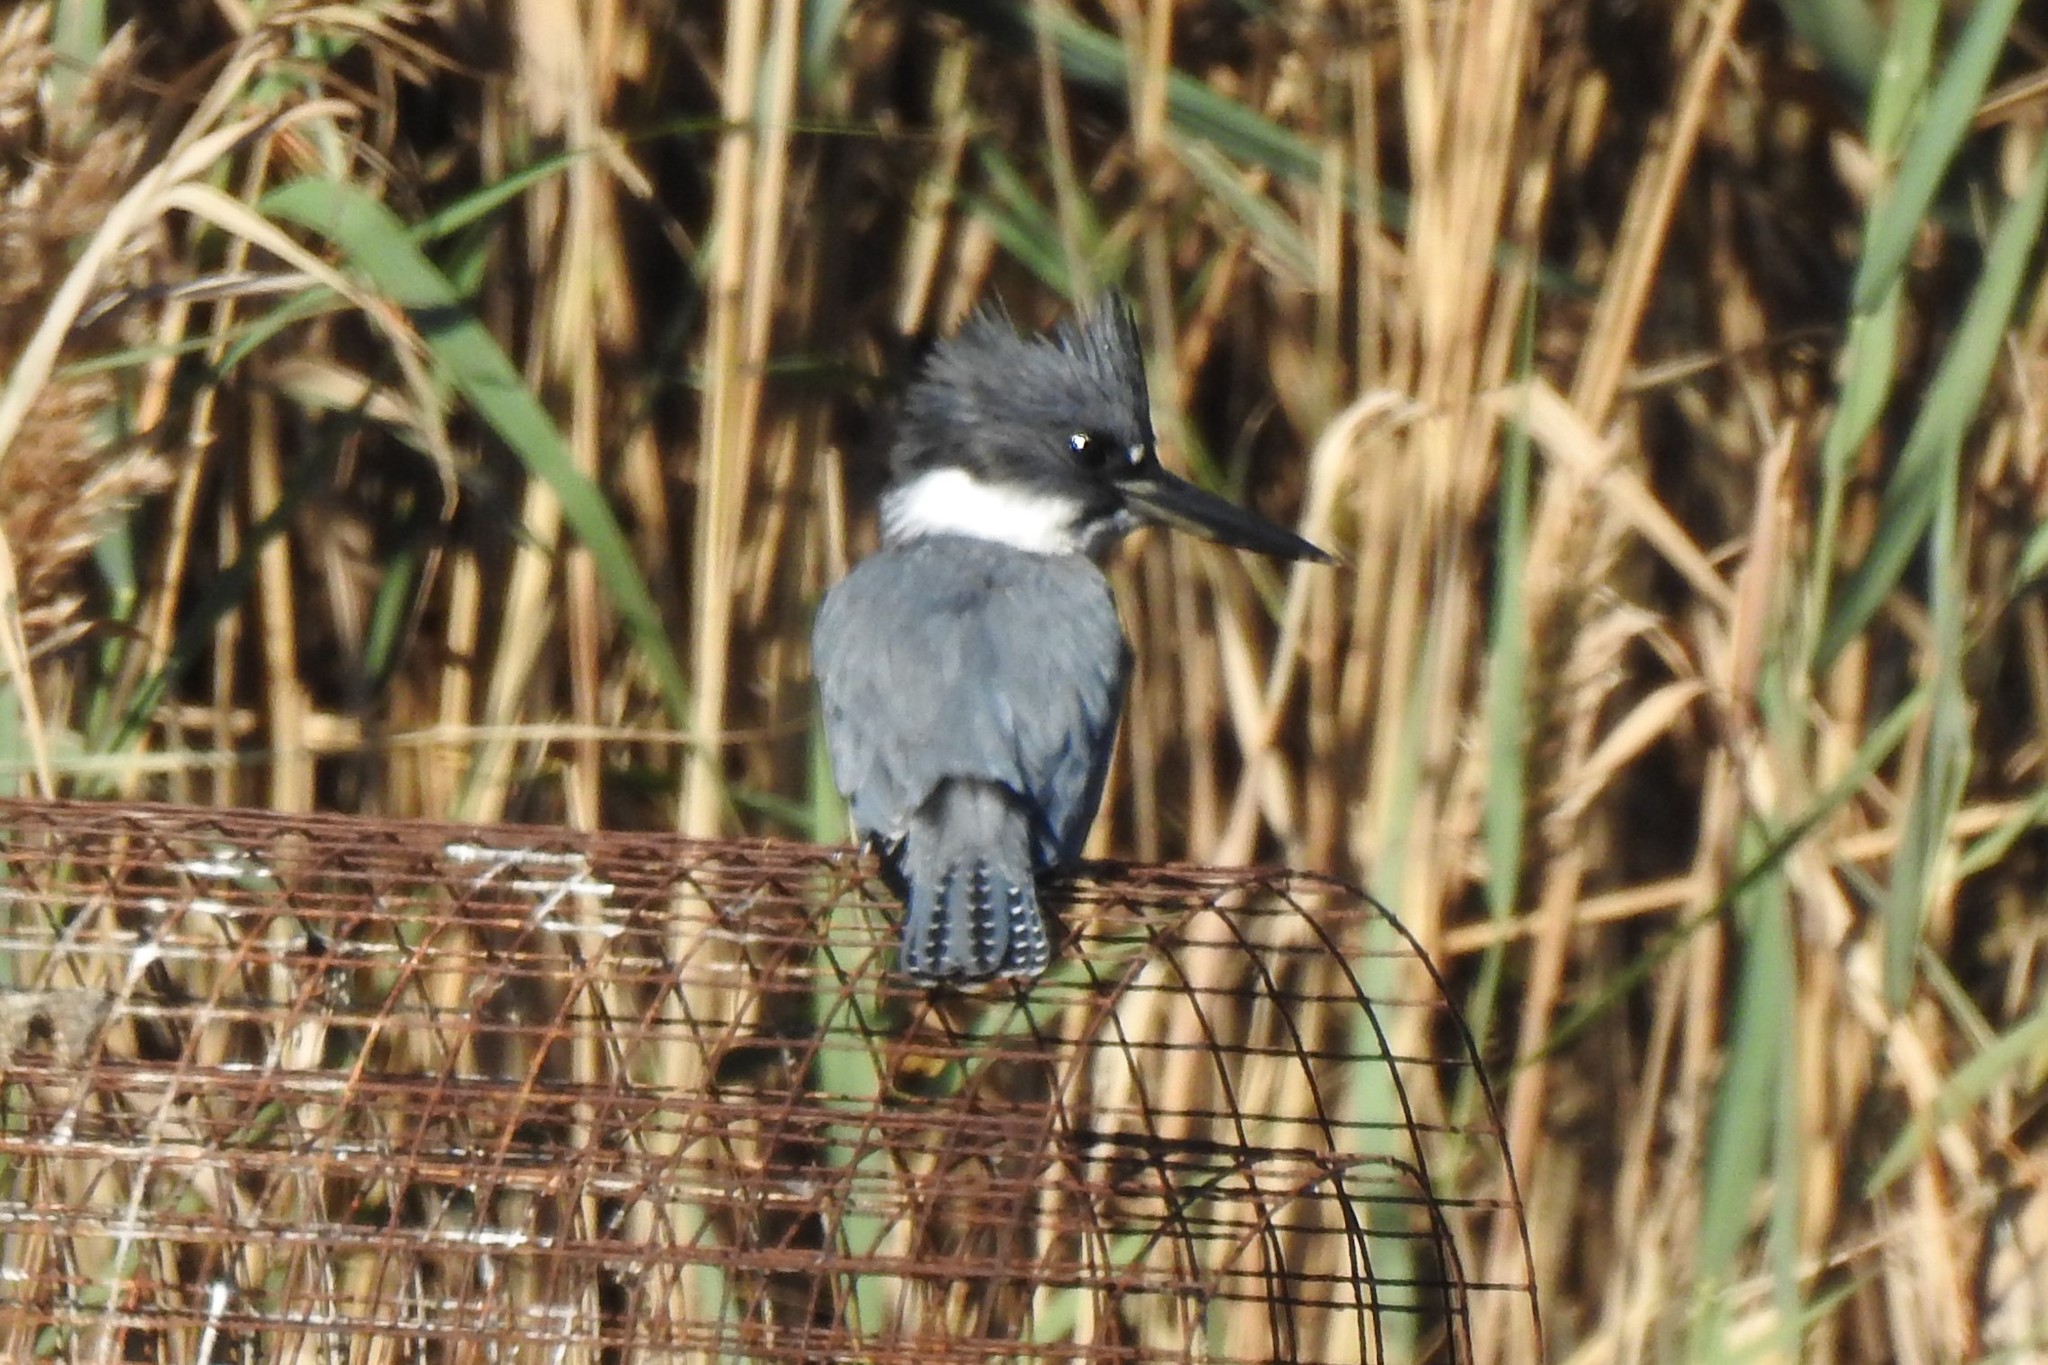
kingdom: Animalia
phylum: Chordata
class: Aves
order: Coraciiformes
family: Alcedinidae
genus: Megaceryle
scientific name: Megaceryle alcyon
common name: Belted kingfisher
